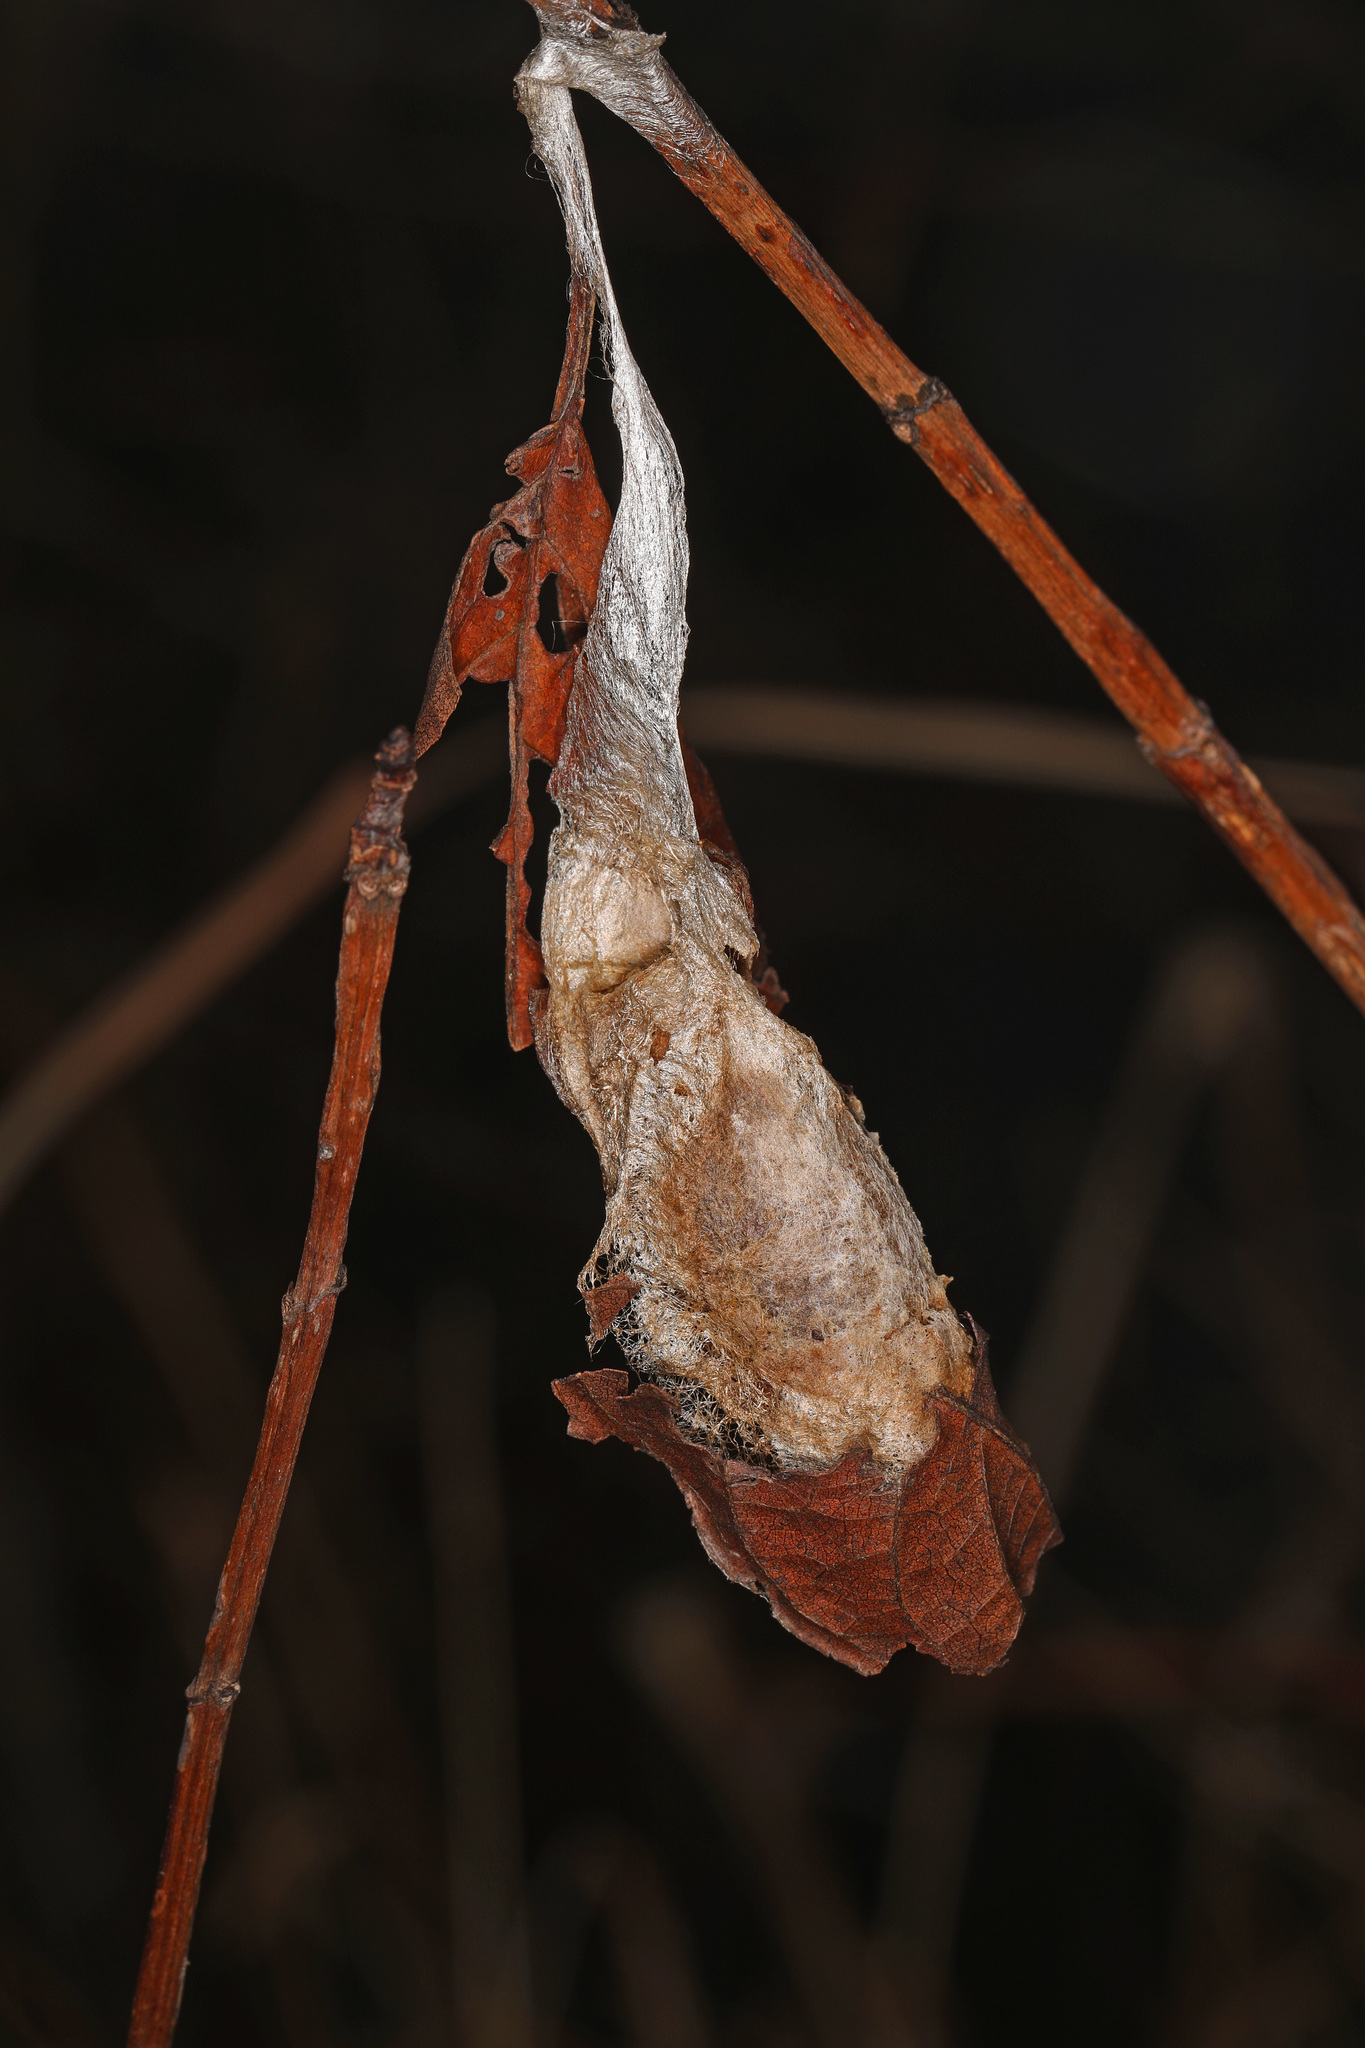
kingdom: Animalia
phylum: Arthropoda
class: Insecta
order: Lepidoptera
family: Saturniidae
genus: Callosamia
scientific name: Callosamia promethea
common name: Promethea silkmoth
